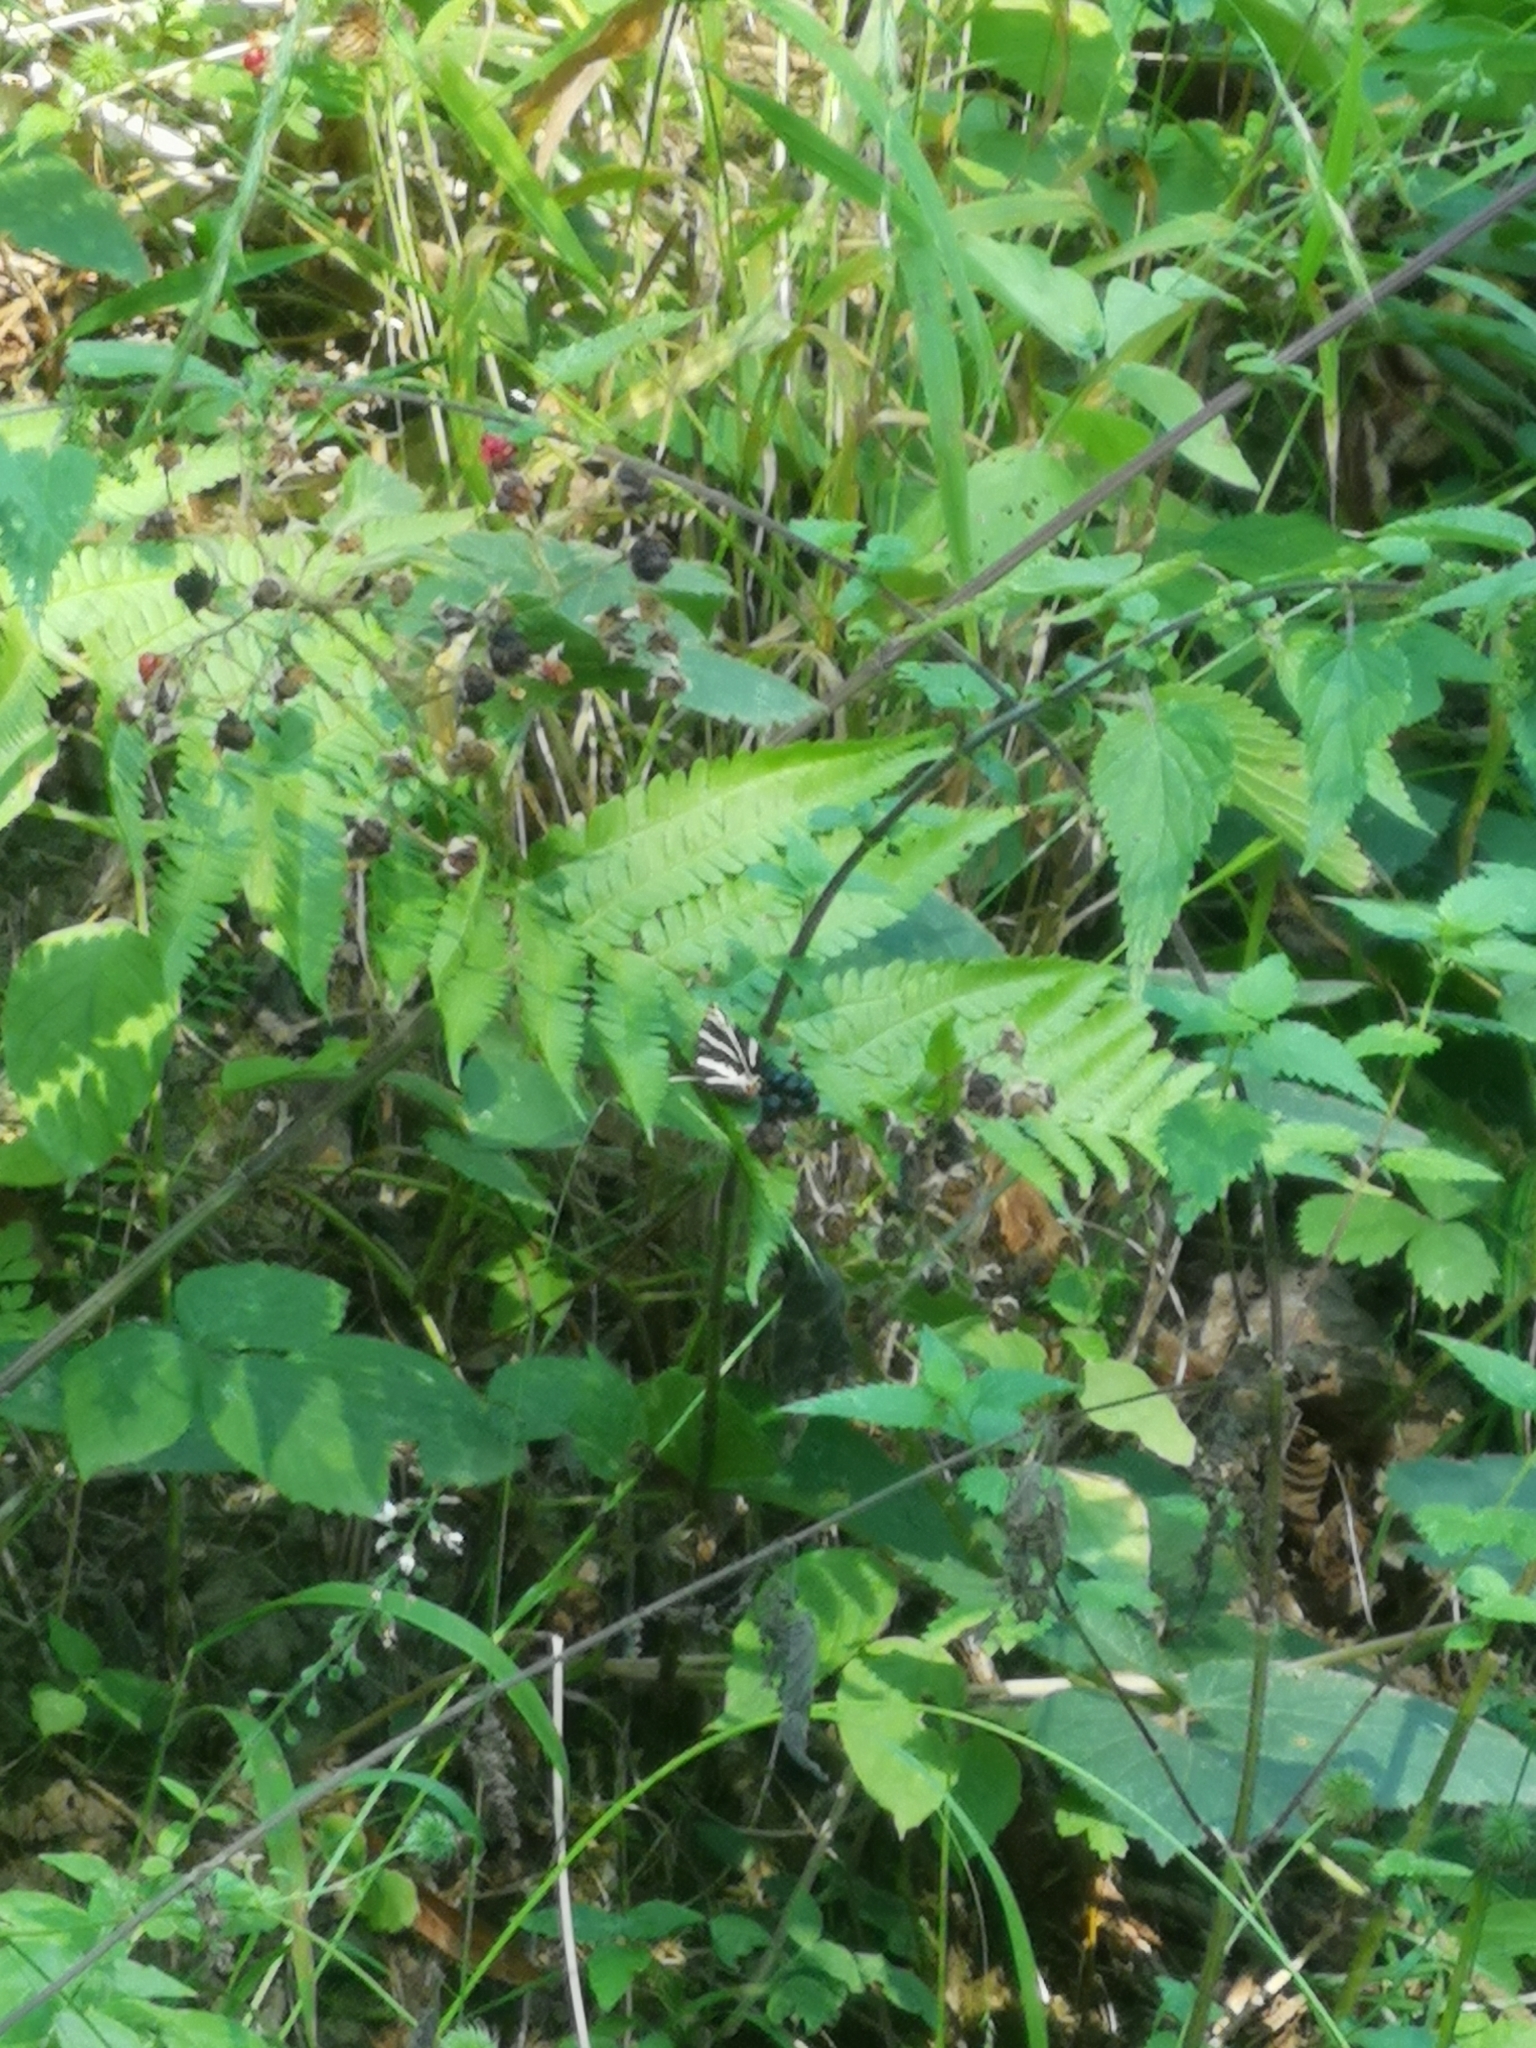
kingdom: Animalia
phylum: Arthropoda
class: Insecta
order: Lepidoptera
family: Erebidae
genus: Euplagia
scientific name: Euplagia quadripunctaria
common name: Jersey tiger
